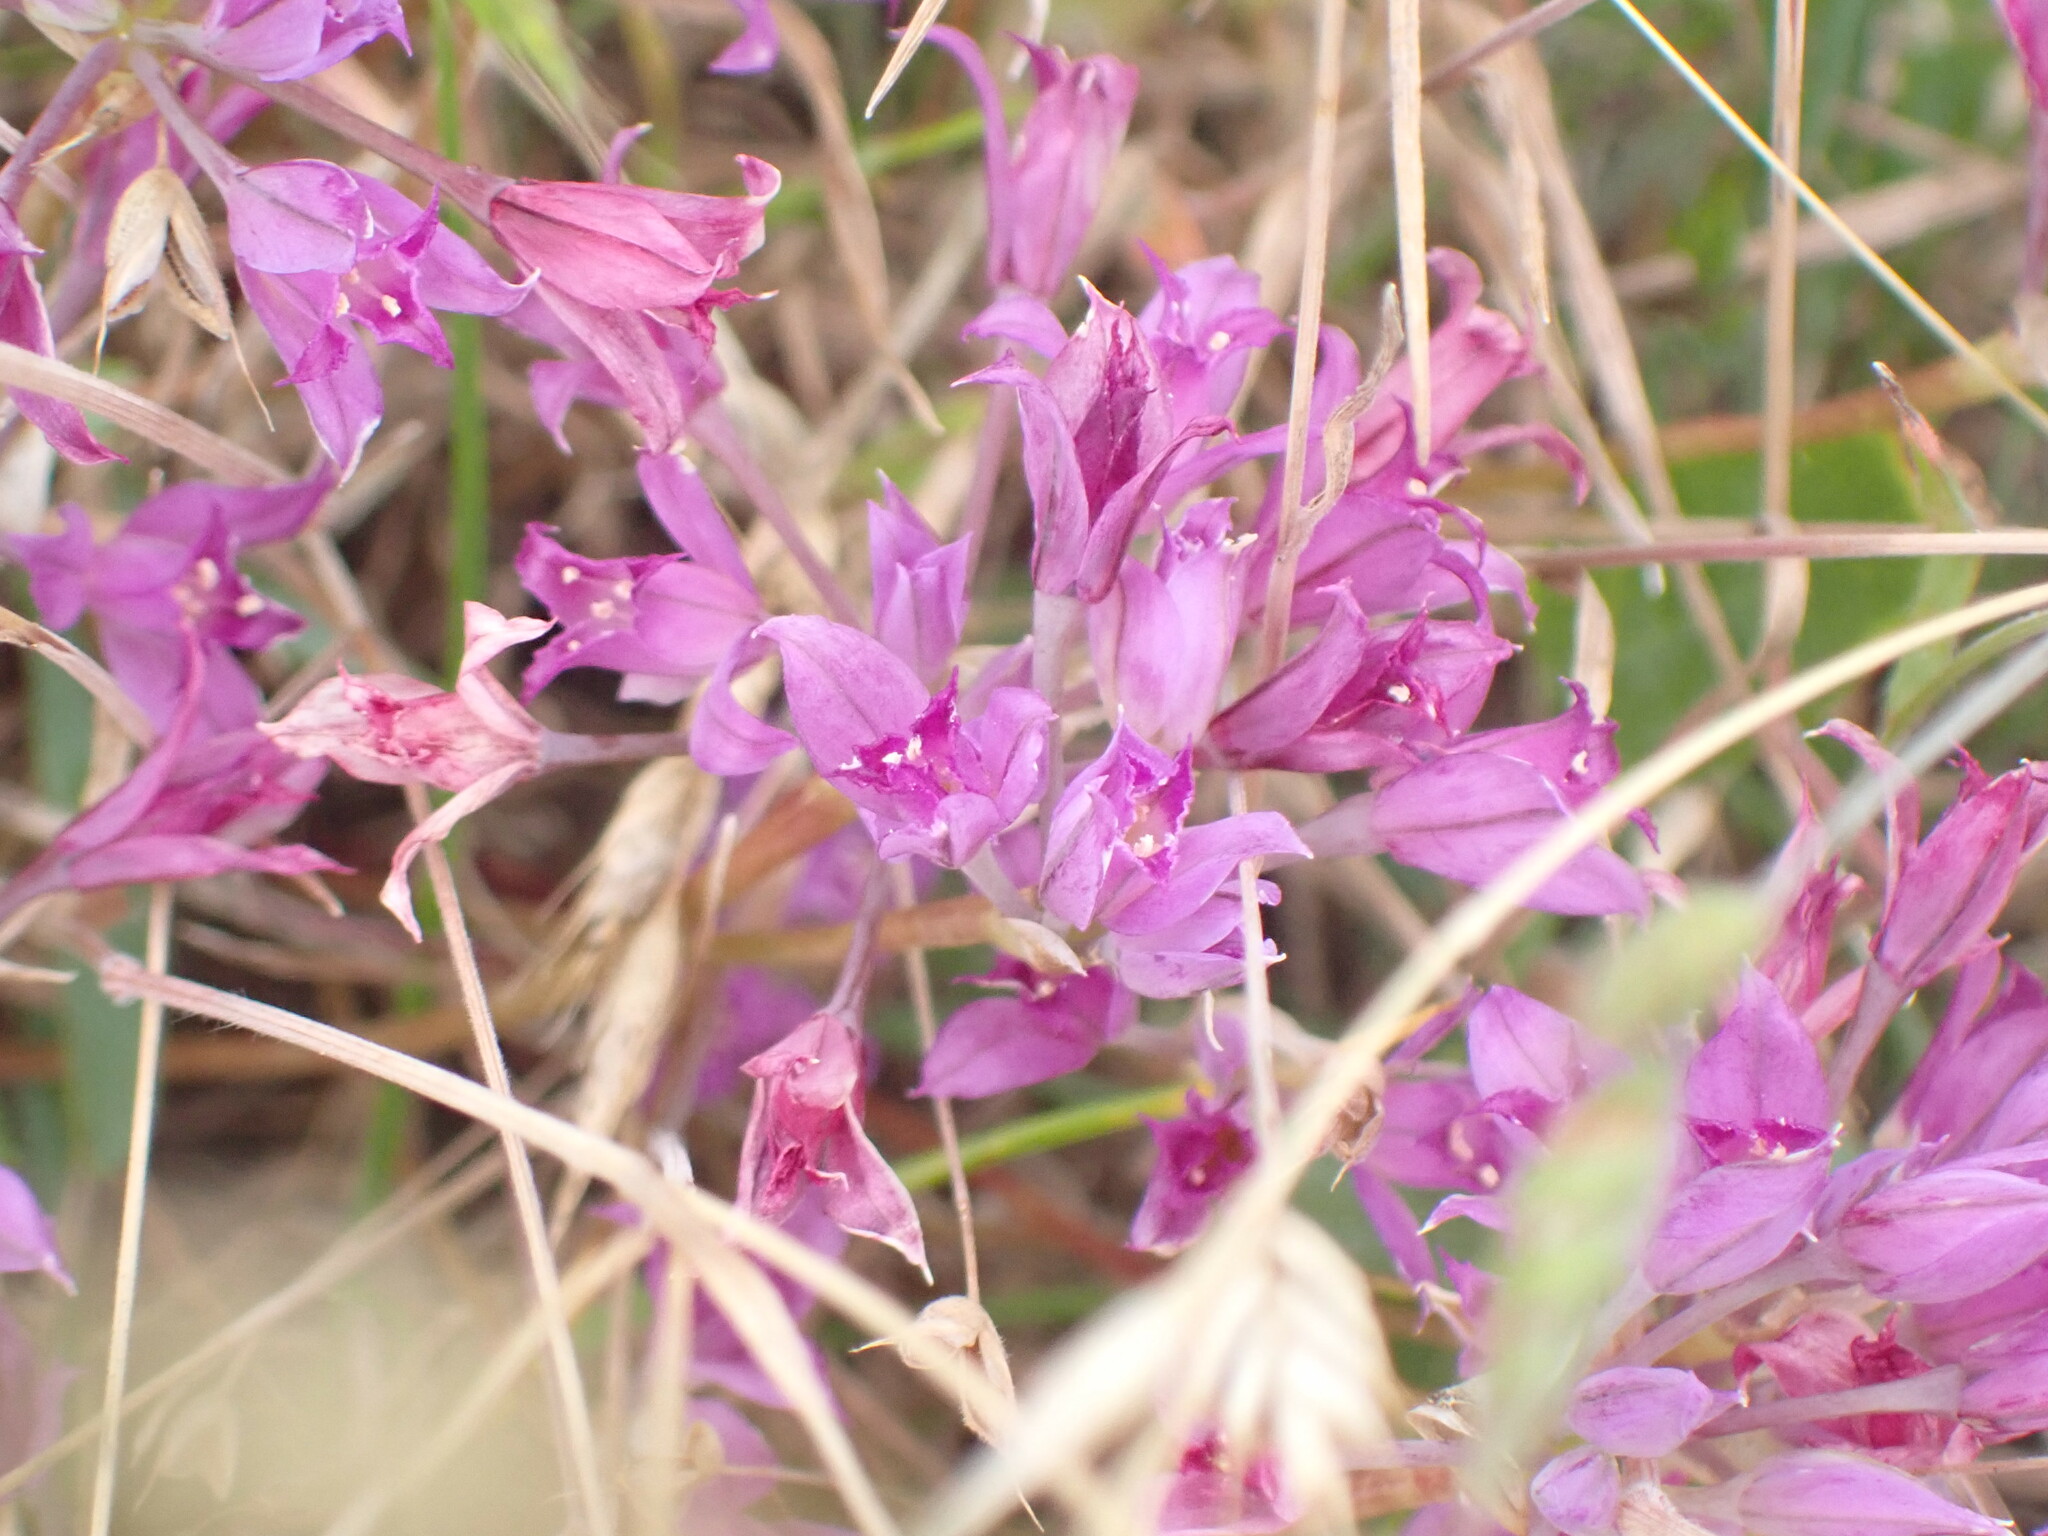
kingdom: Plantae
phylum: Tracheophyta
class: Liliopsida
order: Asparagales
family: Amaryllidaceae
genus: Allium
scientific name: Allium acuminatum
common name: Hooker's onion
